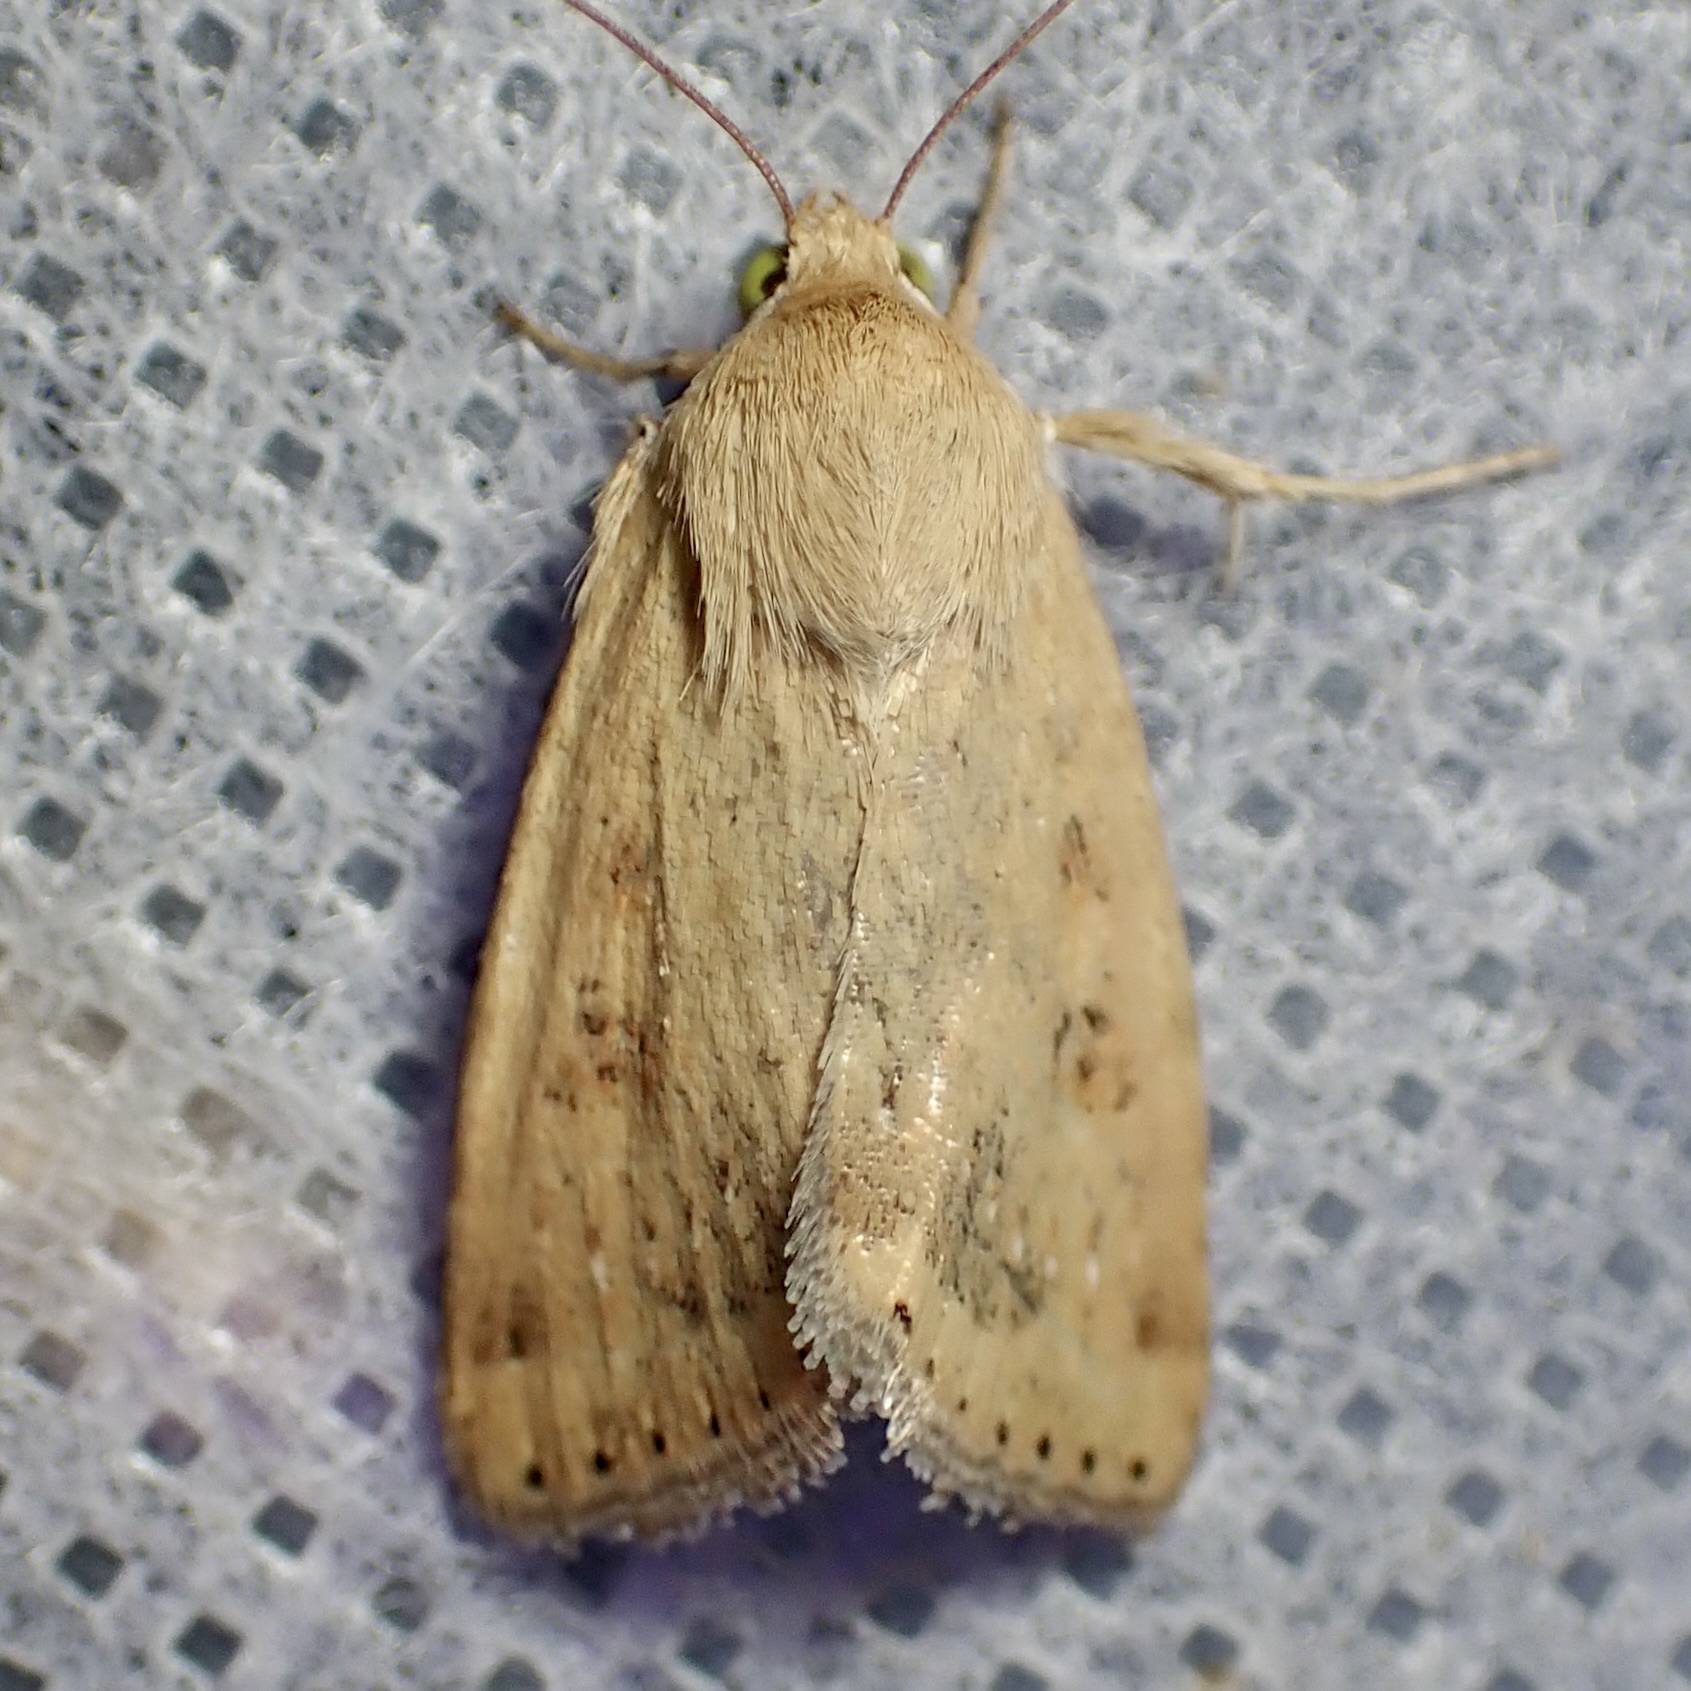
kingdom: Animalia
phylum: Arthropoda
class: Insecta
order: Lepidoptera
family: Noctuidae
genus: Heliocheilus
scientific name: Heliocheilus paradoxus
